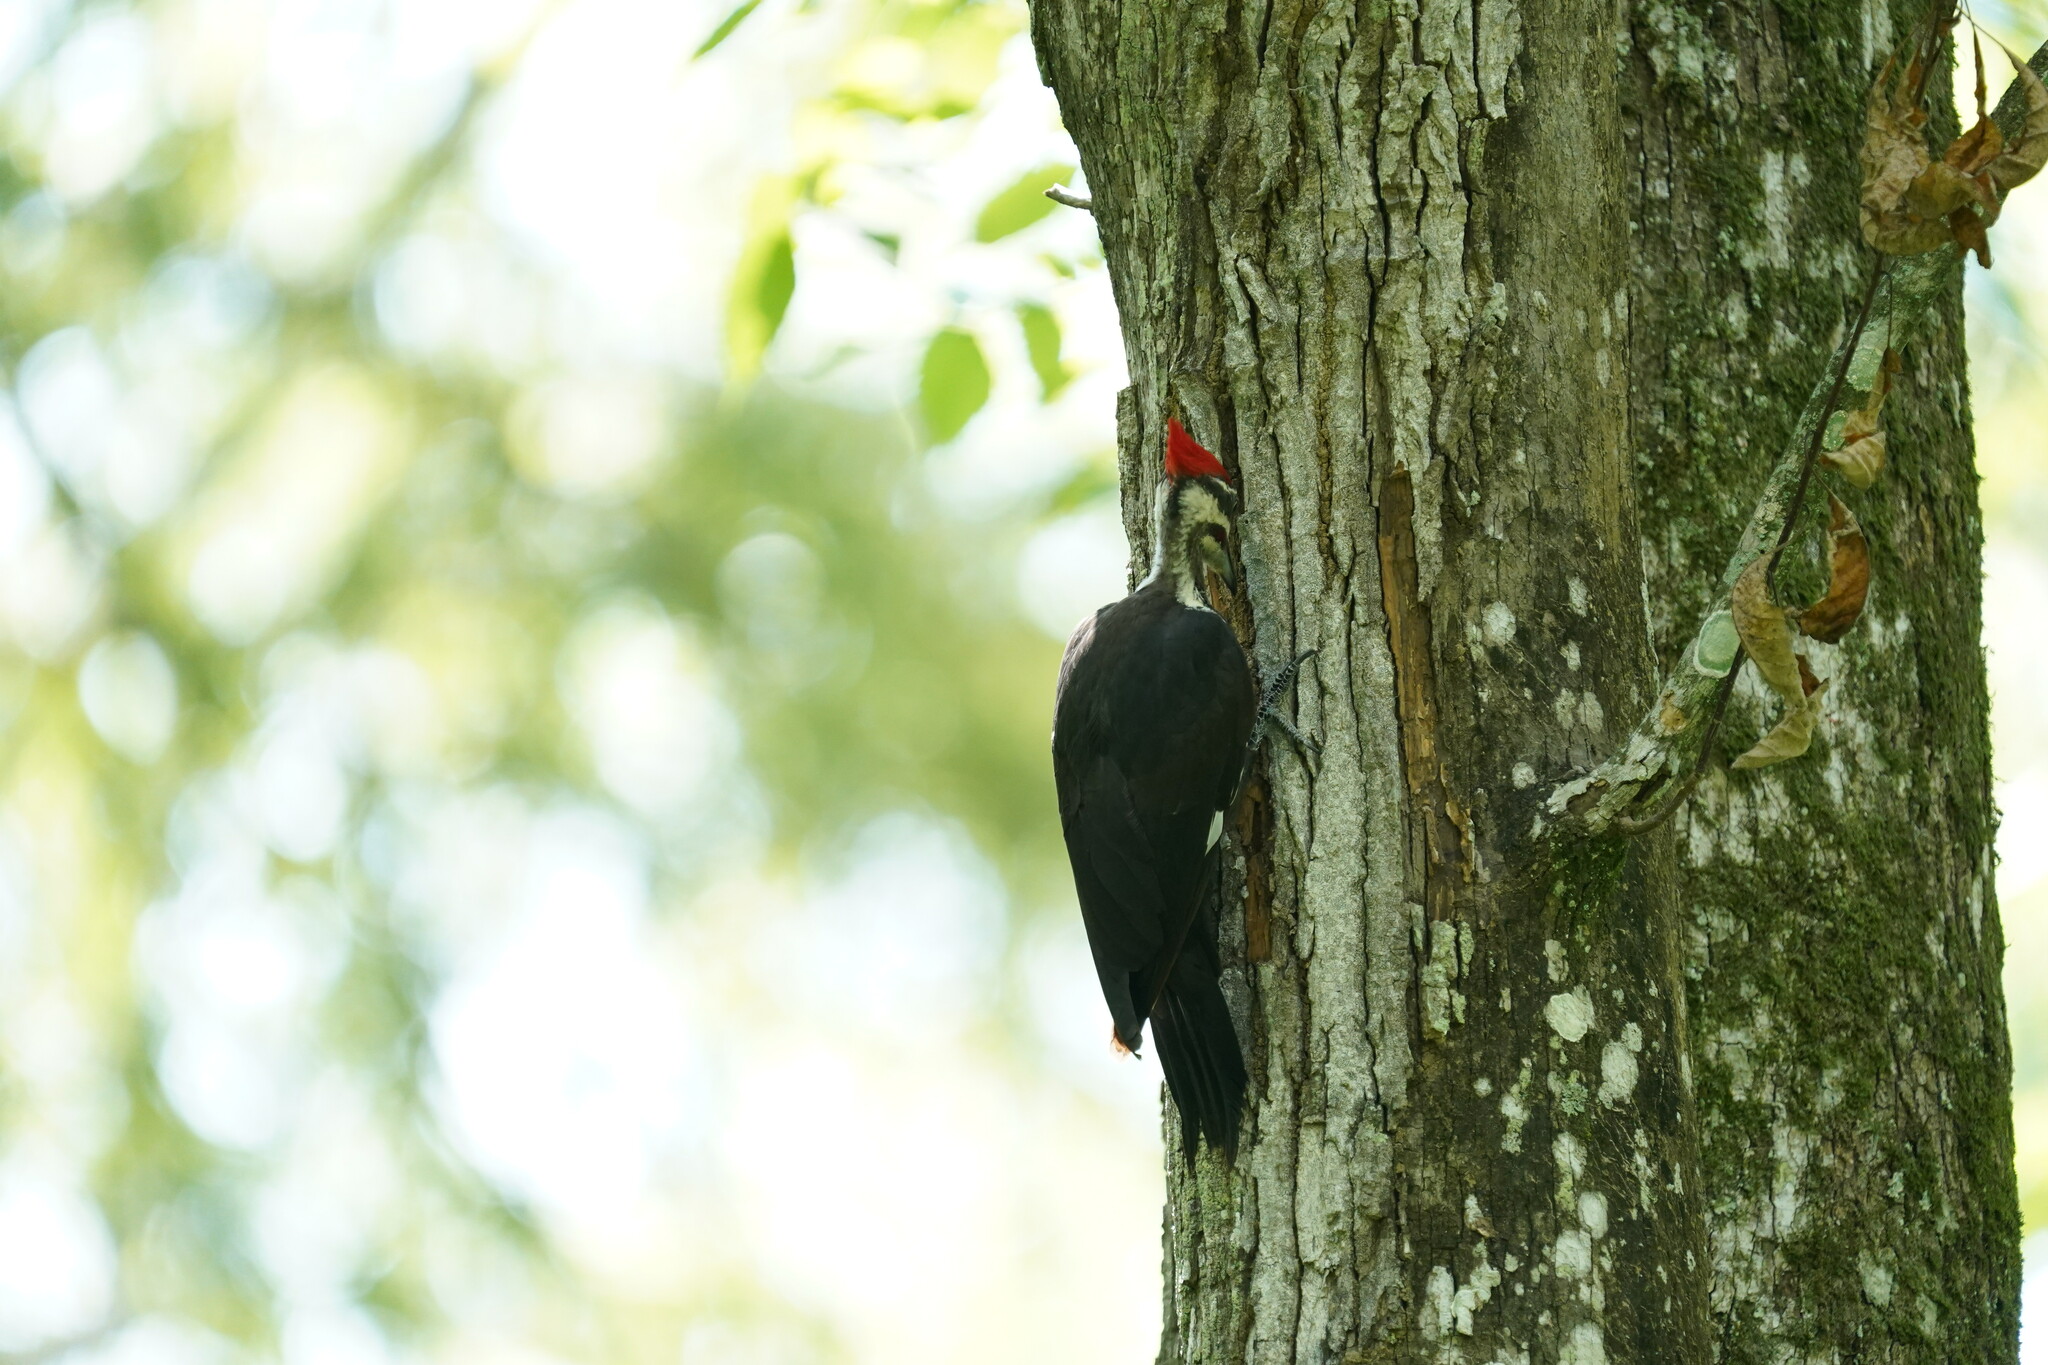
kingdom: Animalia
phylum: Chordata
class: Aves
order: Piciformes
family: Picidae
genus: Dryocopus
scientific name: Dryocopus pileatus
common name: Pileated woodpecker
